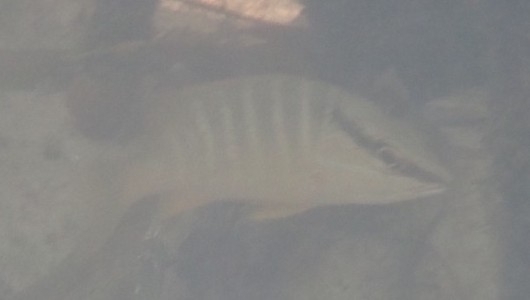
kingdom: Animalia
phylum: Chordata
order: Perciformes
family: Lutjanidae
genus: Lutjanus
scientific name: Lutjanus apodus
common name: Schoolmaster
